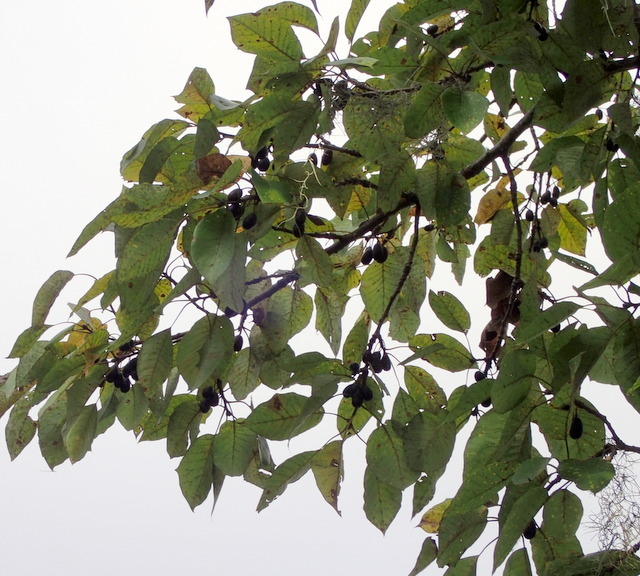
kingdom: Plantae
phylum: Tracheophyta
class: Magnoliopsida
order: Cornales
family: Nyssaceae
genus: Nyssa
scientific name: Nyssa aquatica
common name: Swamp tupelo
